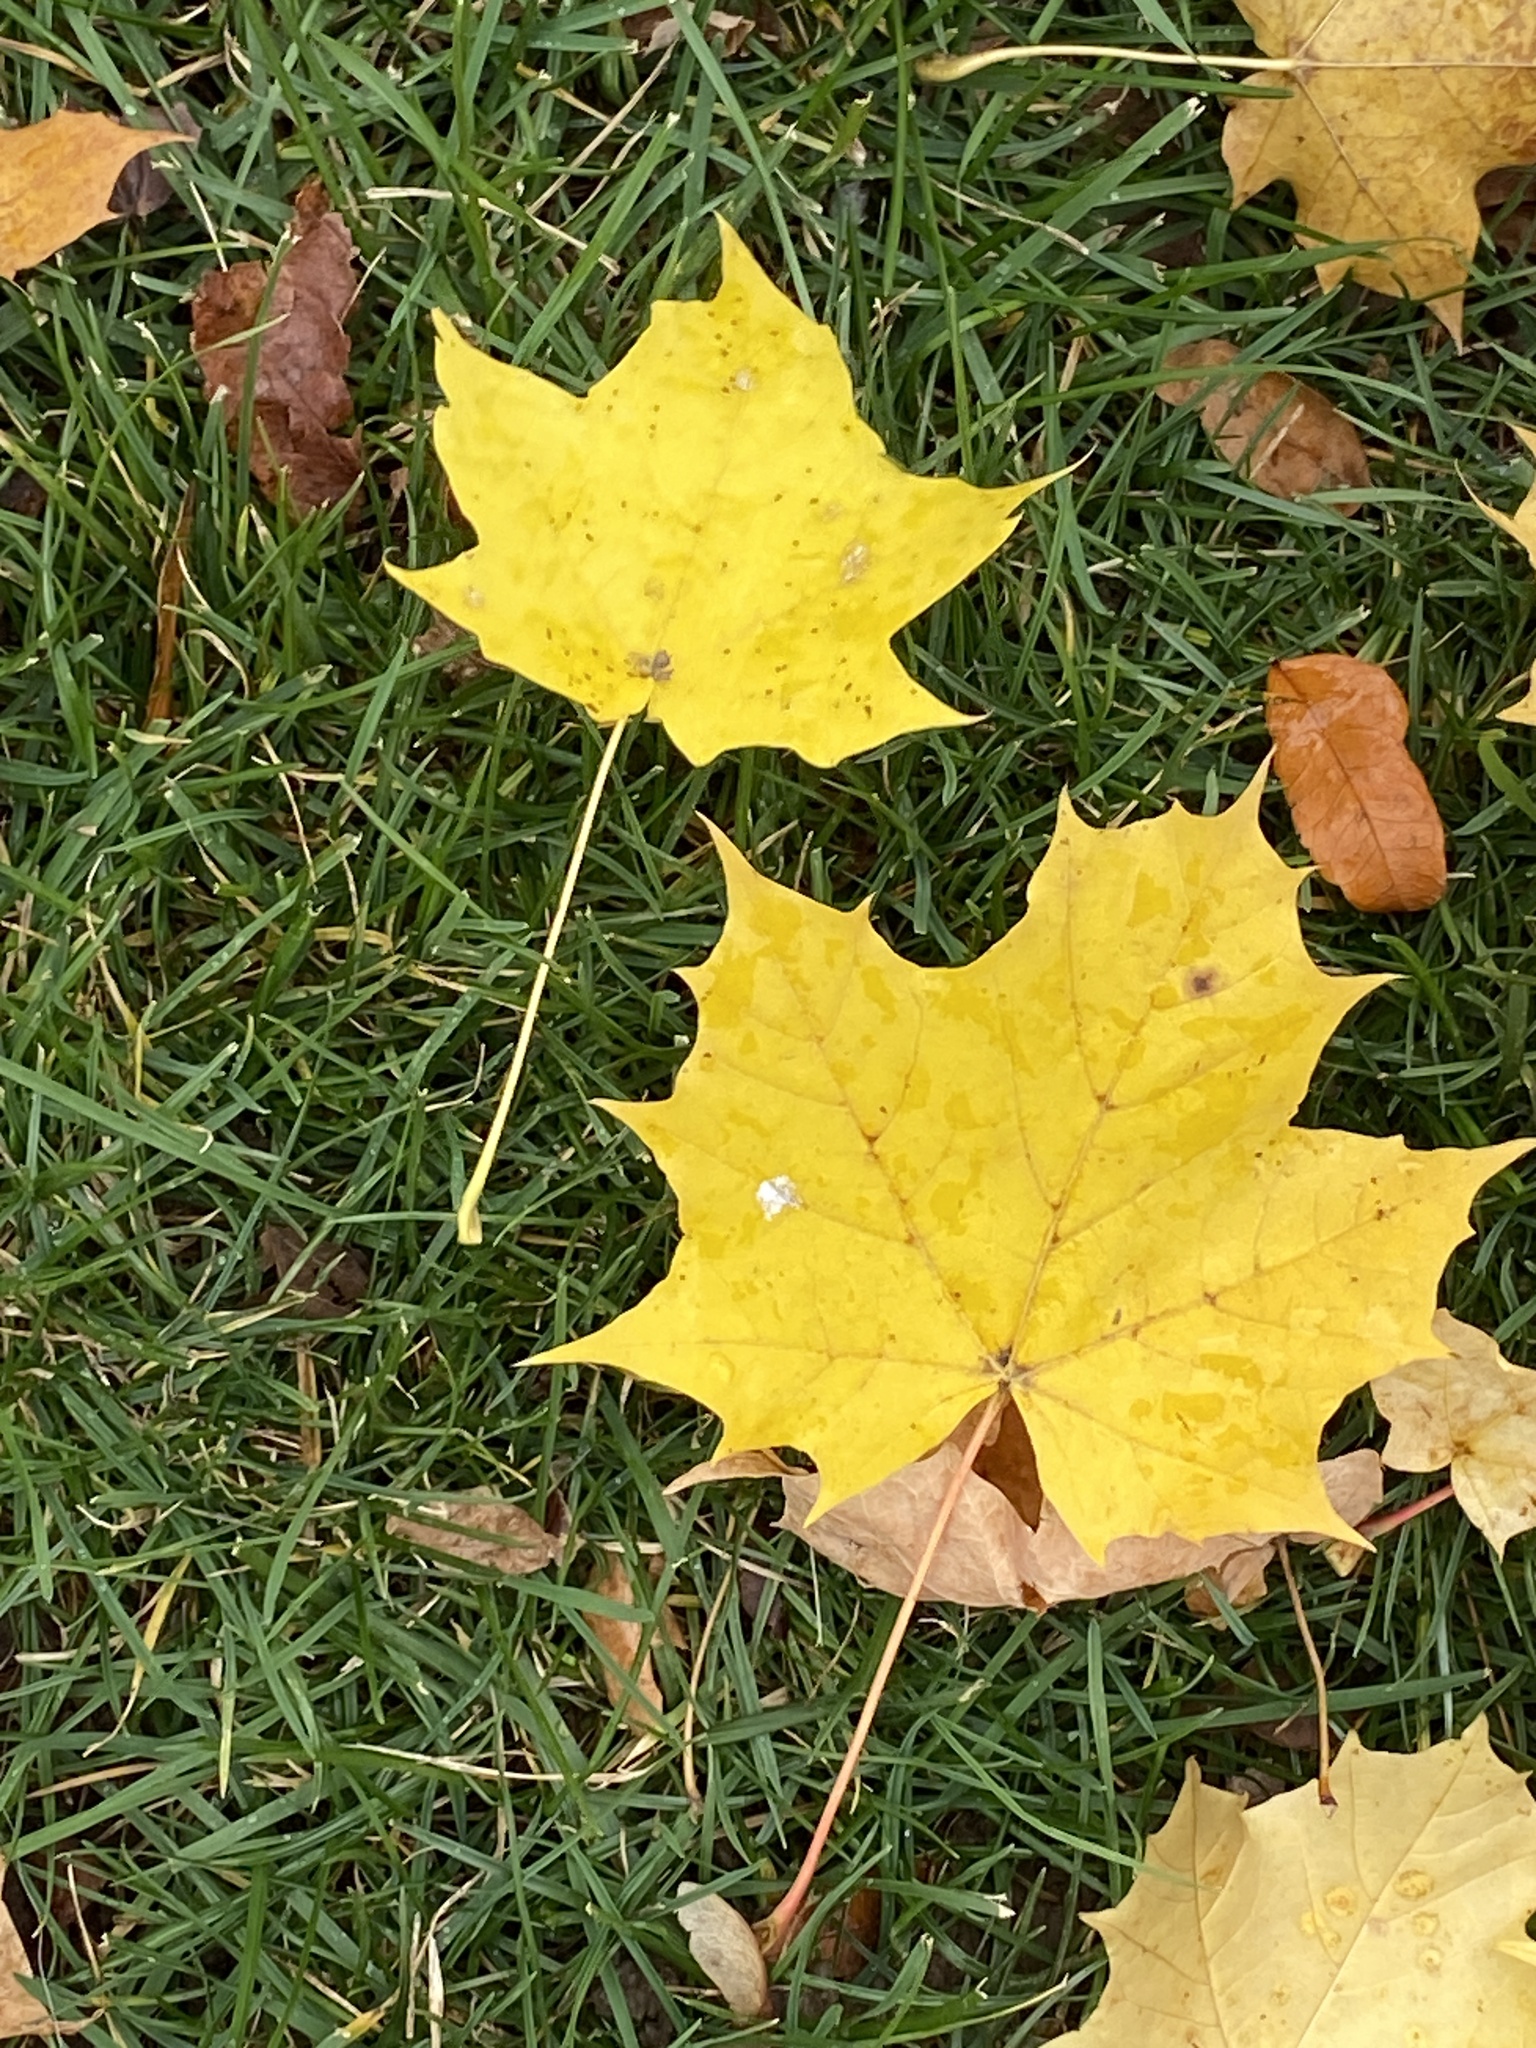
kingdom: Plantae
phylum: Tracheophyta
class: Magnoliopsida
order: Sapindales
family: Sapindaceae
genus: Acer
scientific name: Acer platanoides
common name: Norway maple
